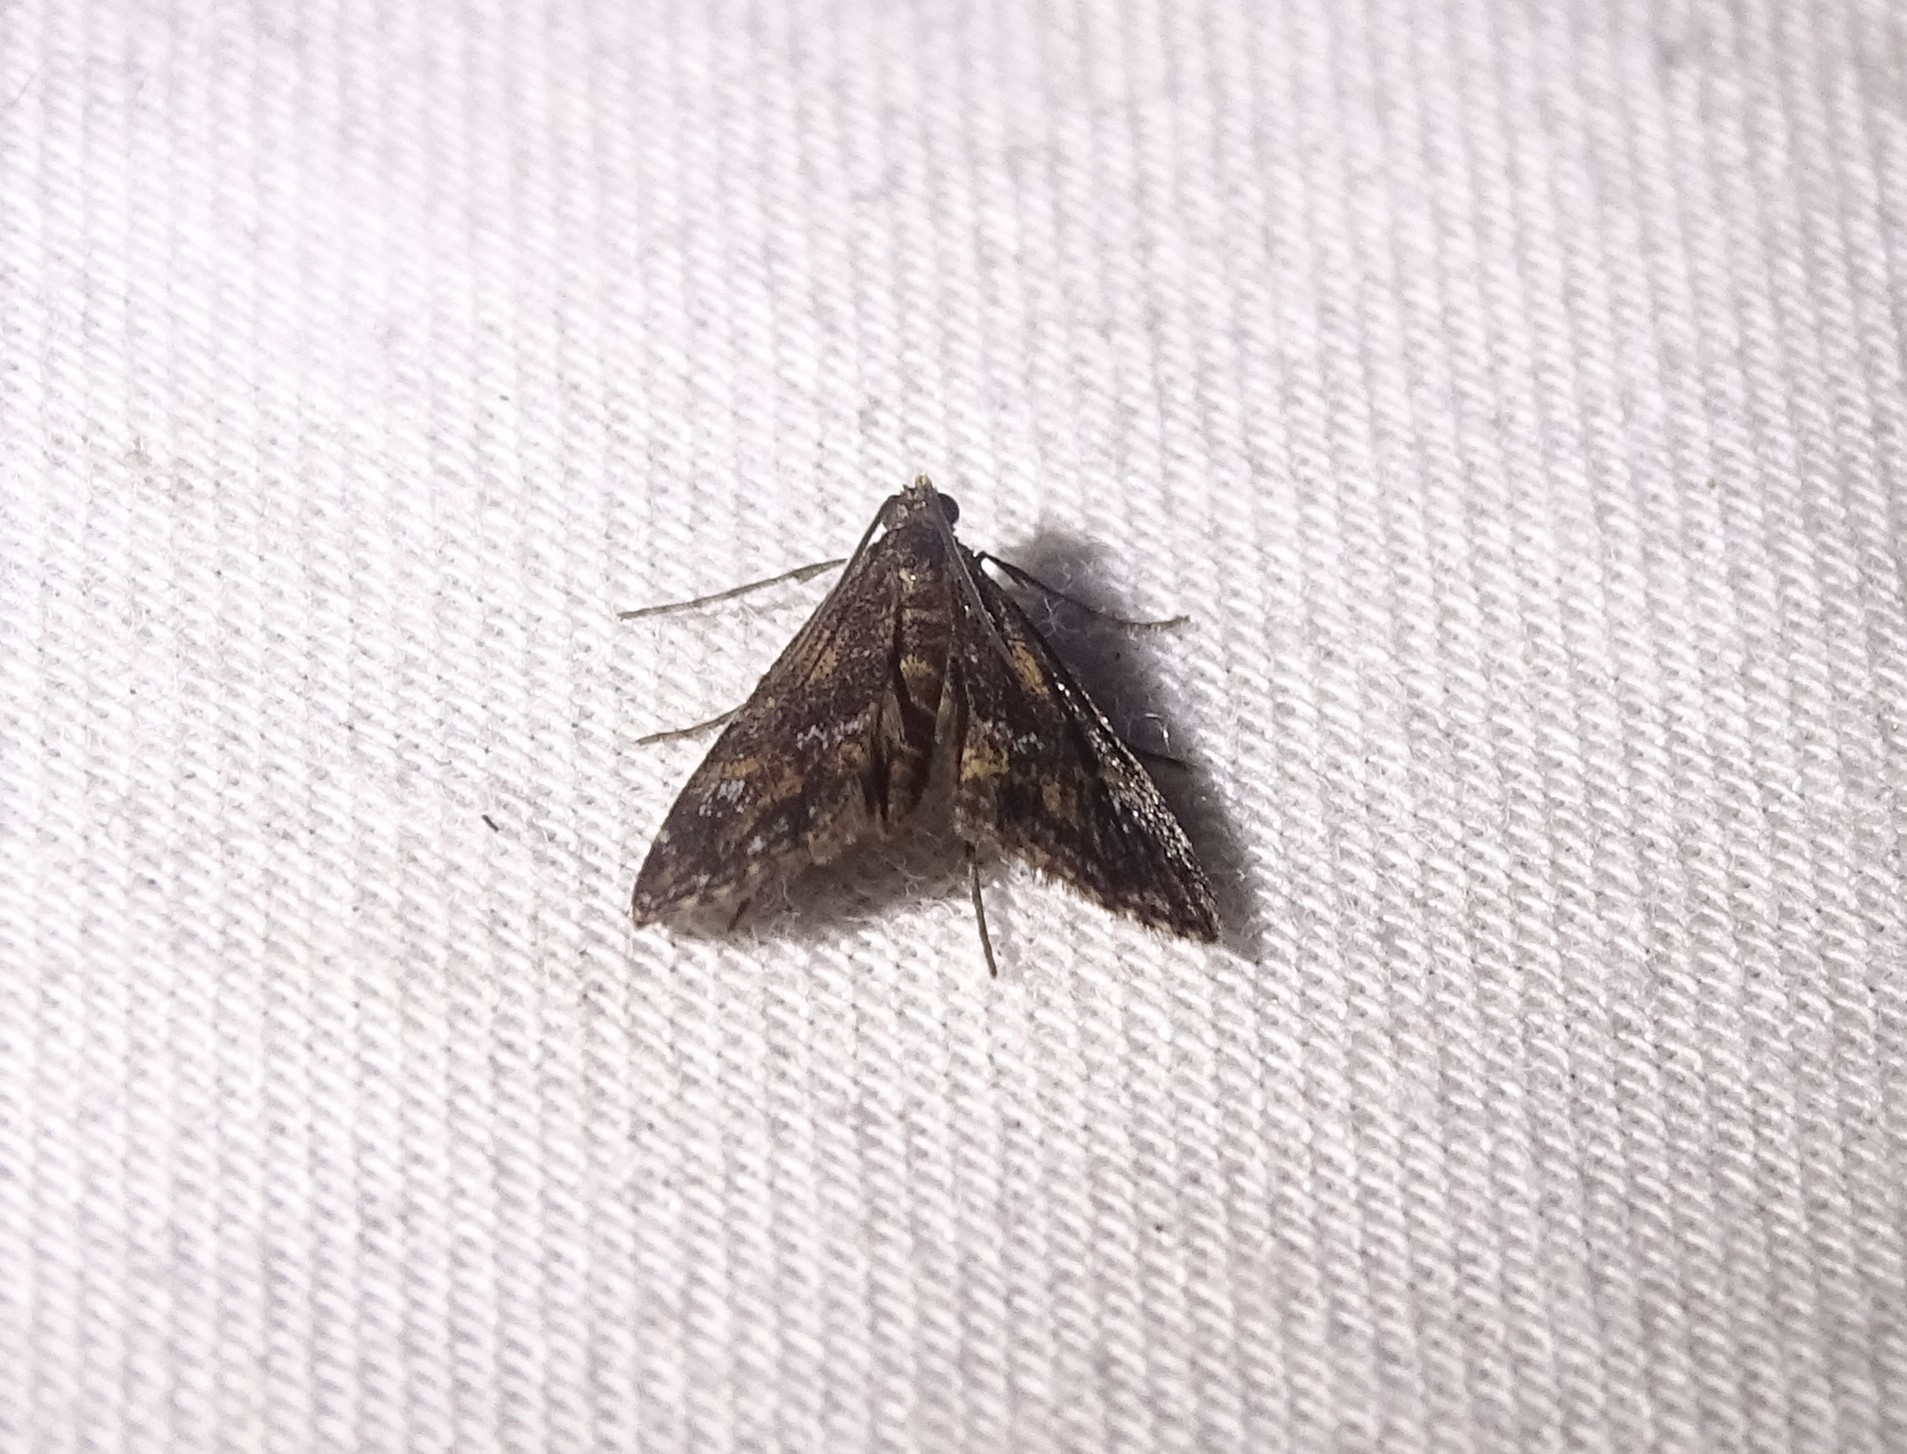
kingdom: Animalia
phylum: Arthropoda
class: Insecta
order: Lepidoptera
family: Crambidae
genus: Elophila
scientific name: Elophila obliteralis
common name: Waterlily leafcutter moth
